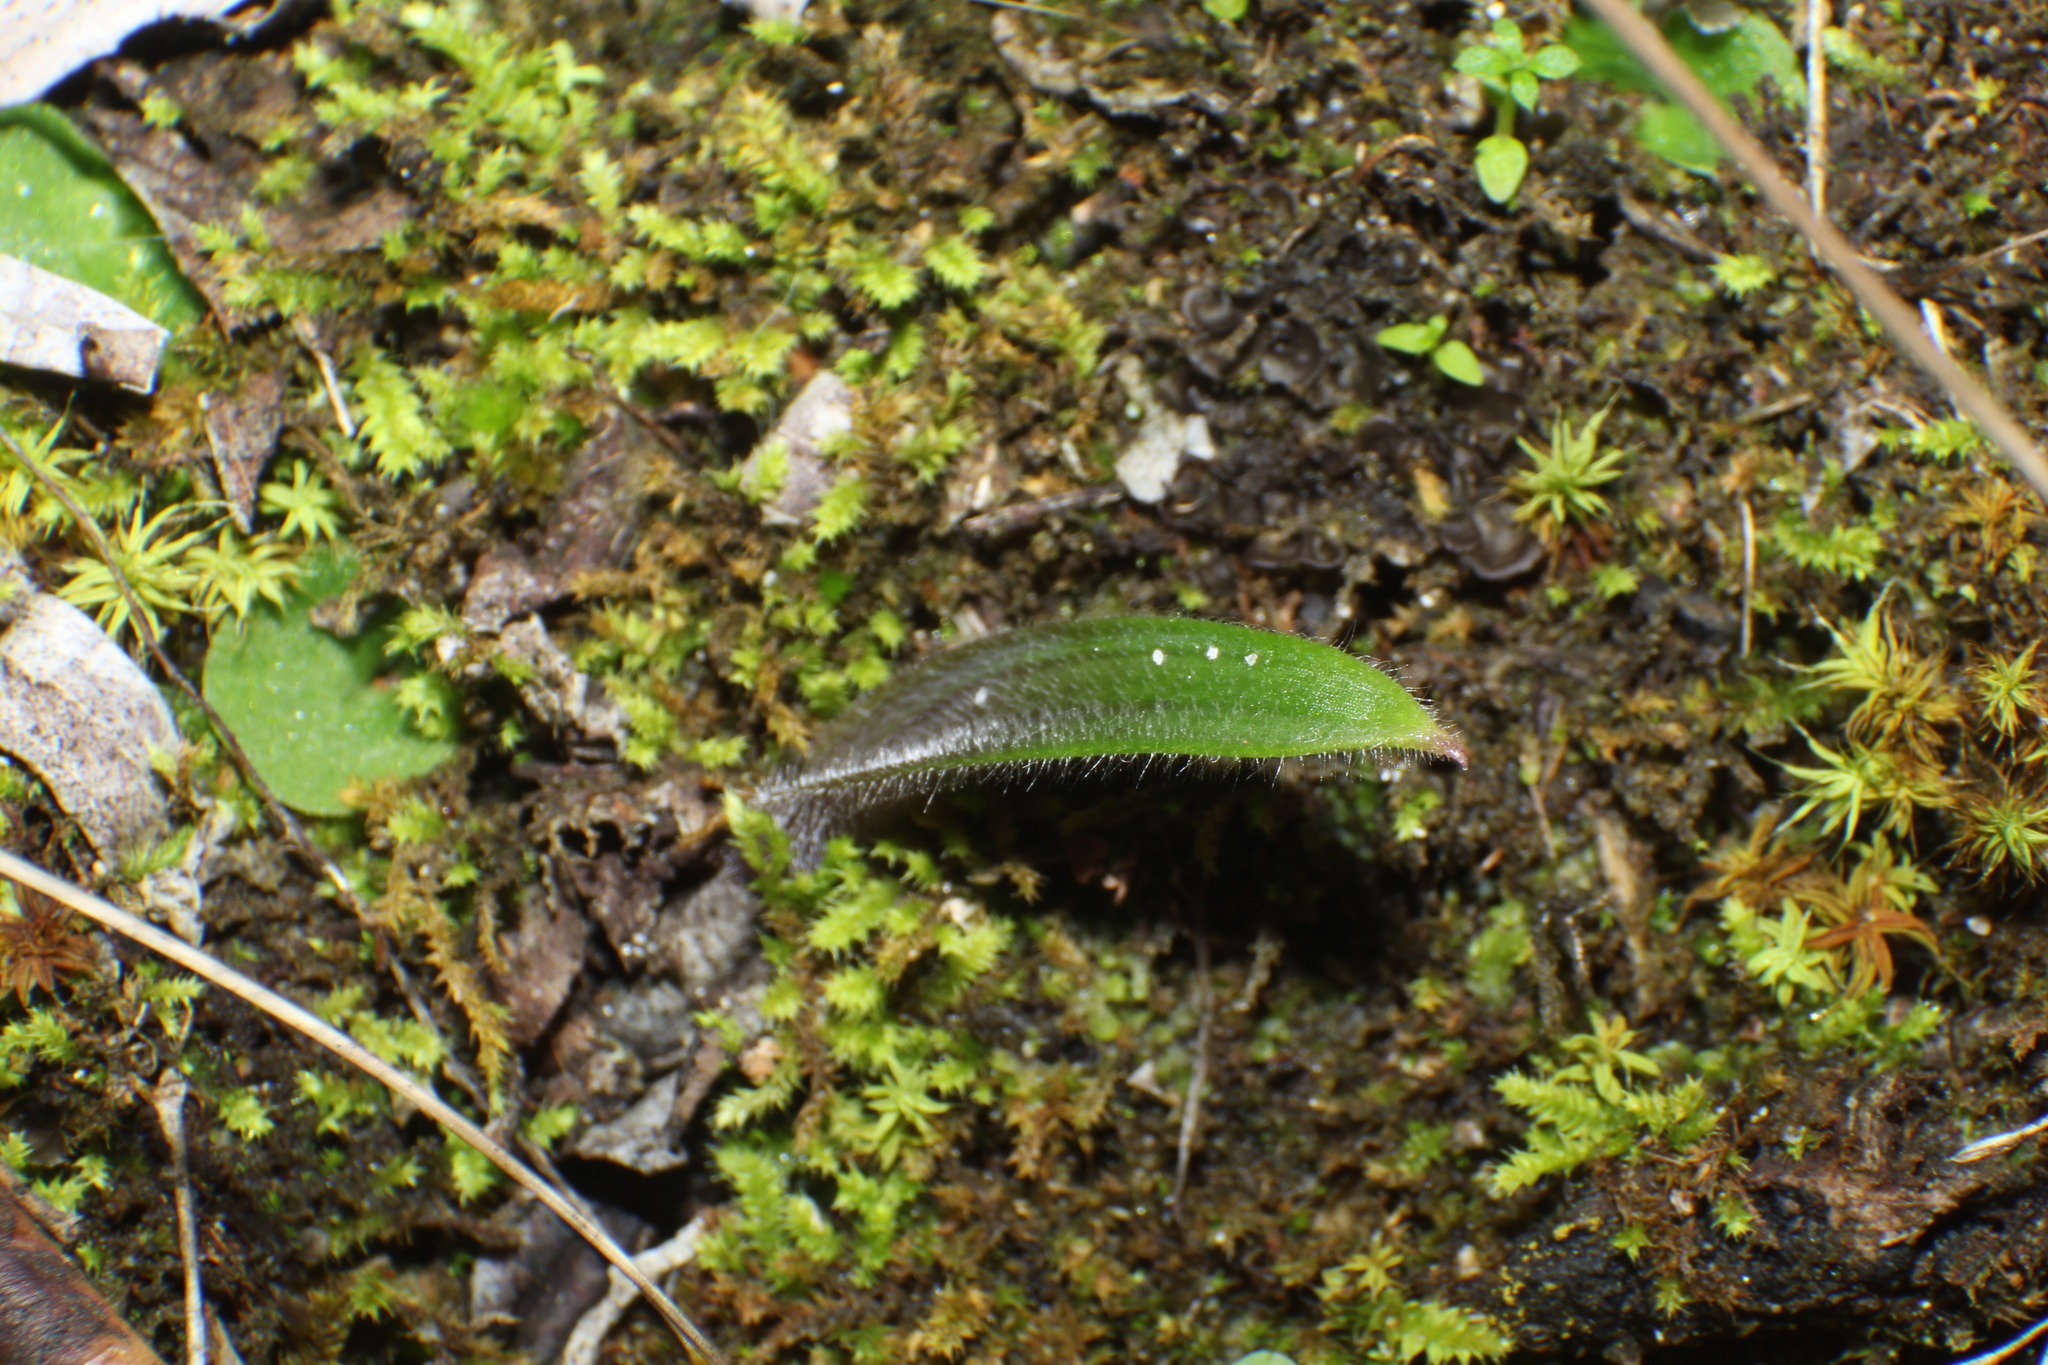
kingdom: Plantae
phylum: Tracheophyta
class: Liliopsida
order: Asparagales
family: Orchidaceae
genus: Caladenia
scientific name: Caladenia flava
